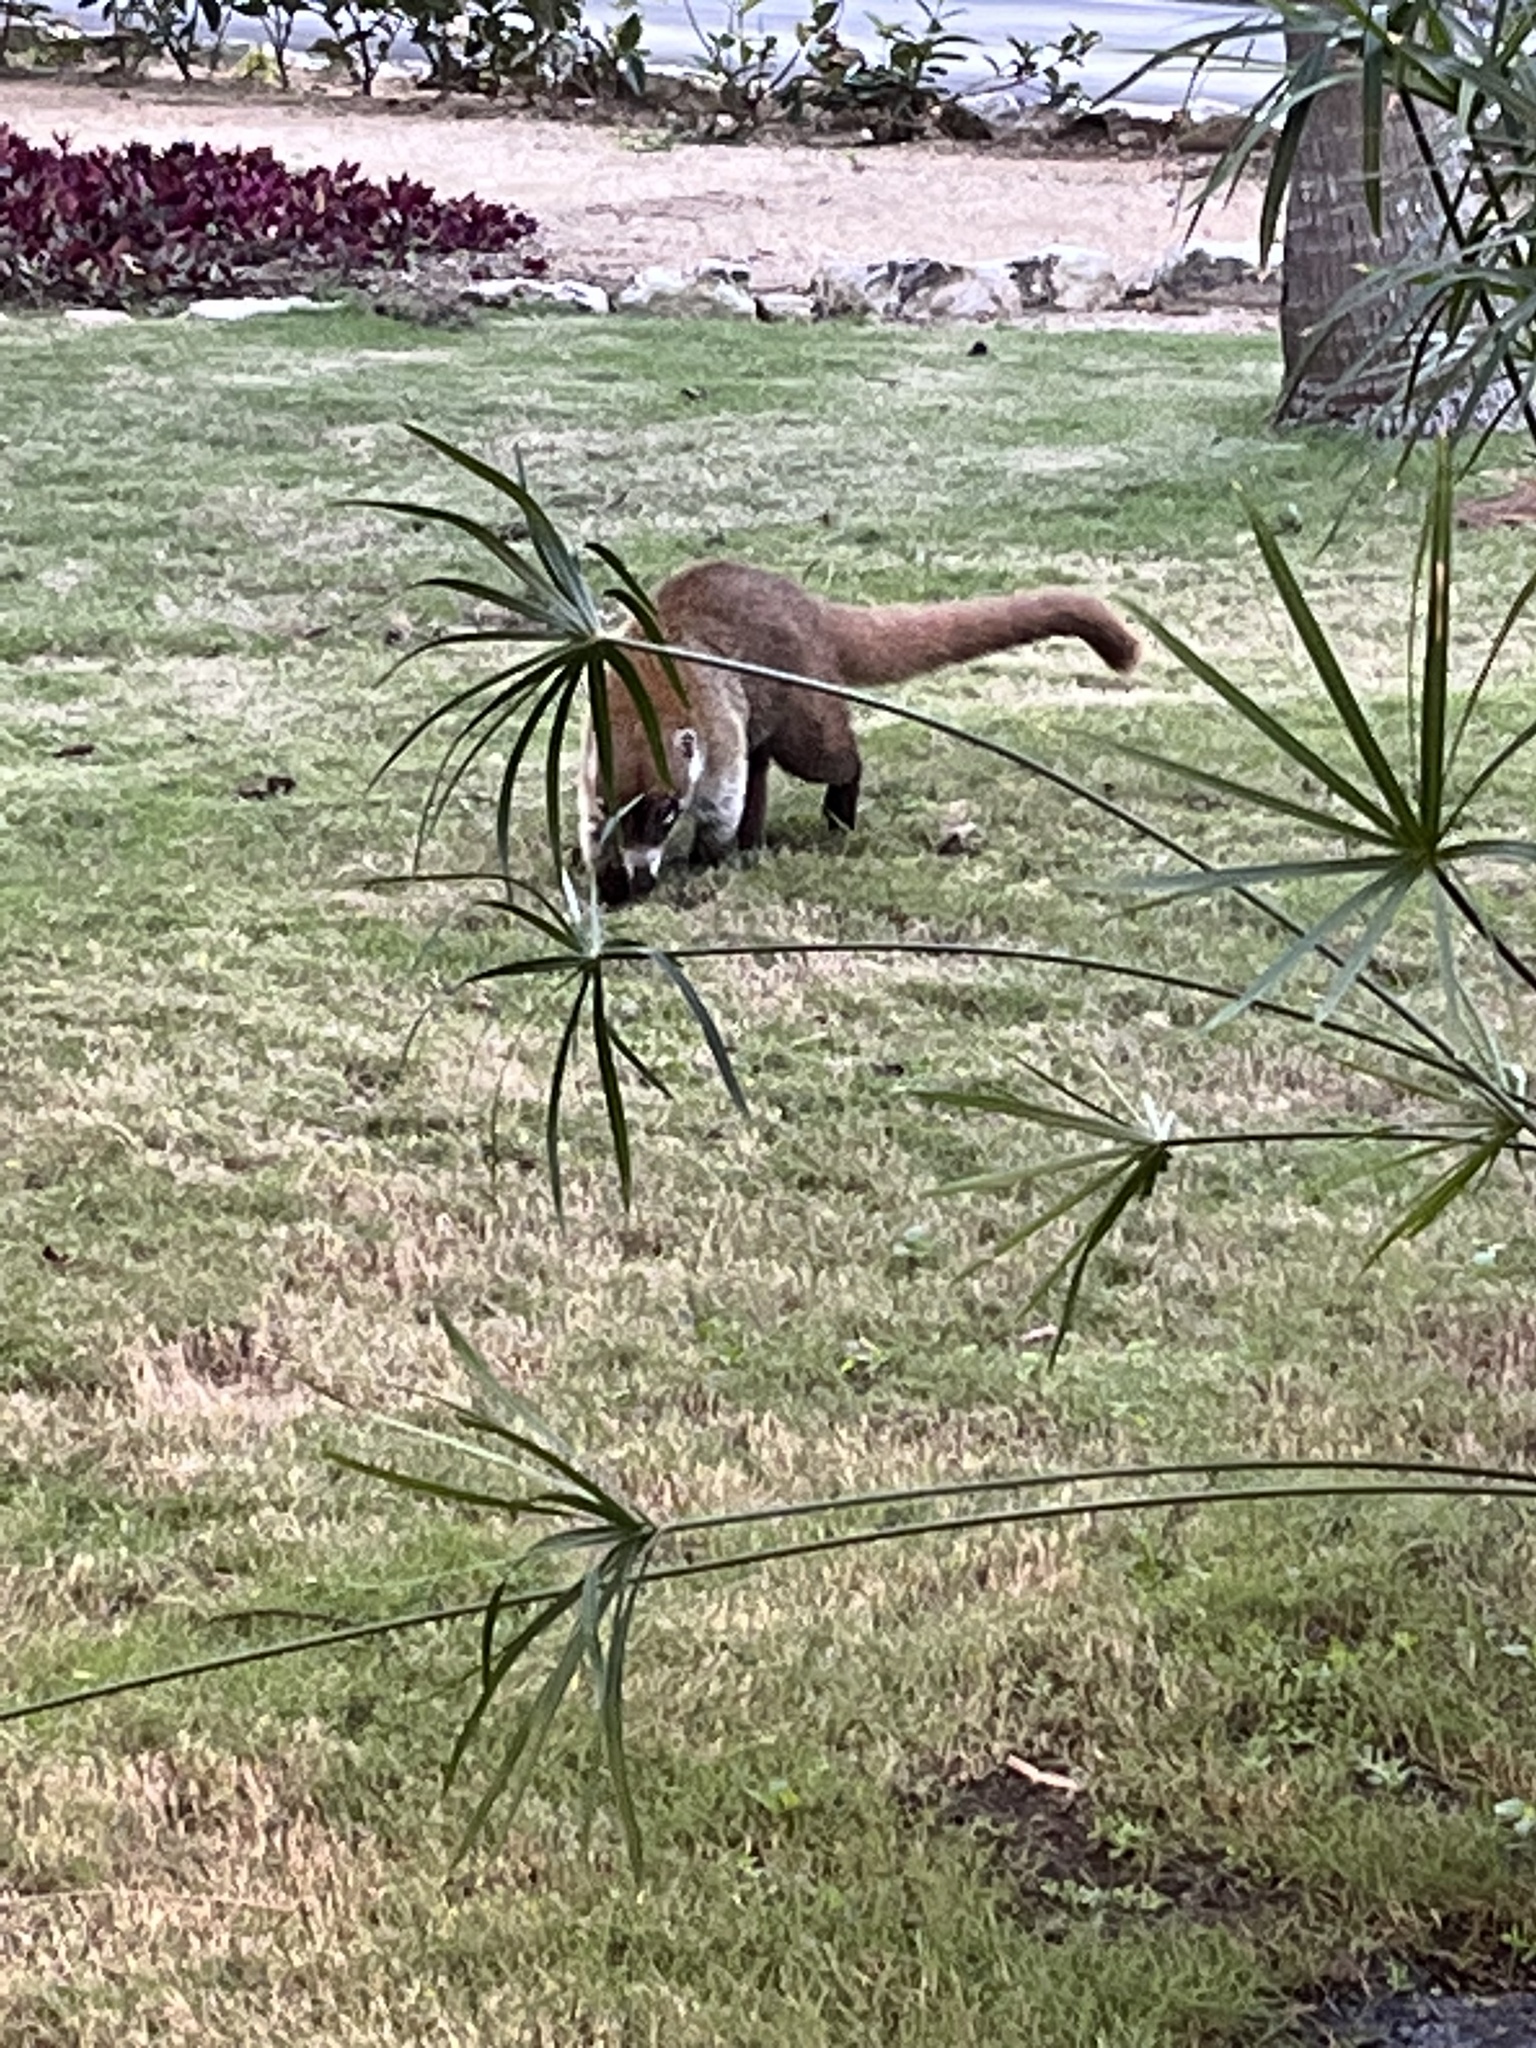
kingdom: Animalia
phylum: Chordata
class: Mammalia
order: Carnivora
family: Procyonidae
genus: Nasua
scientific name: Nasua narica
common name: White-nosed coati
